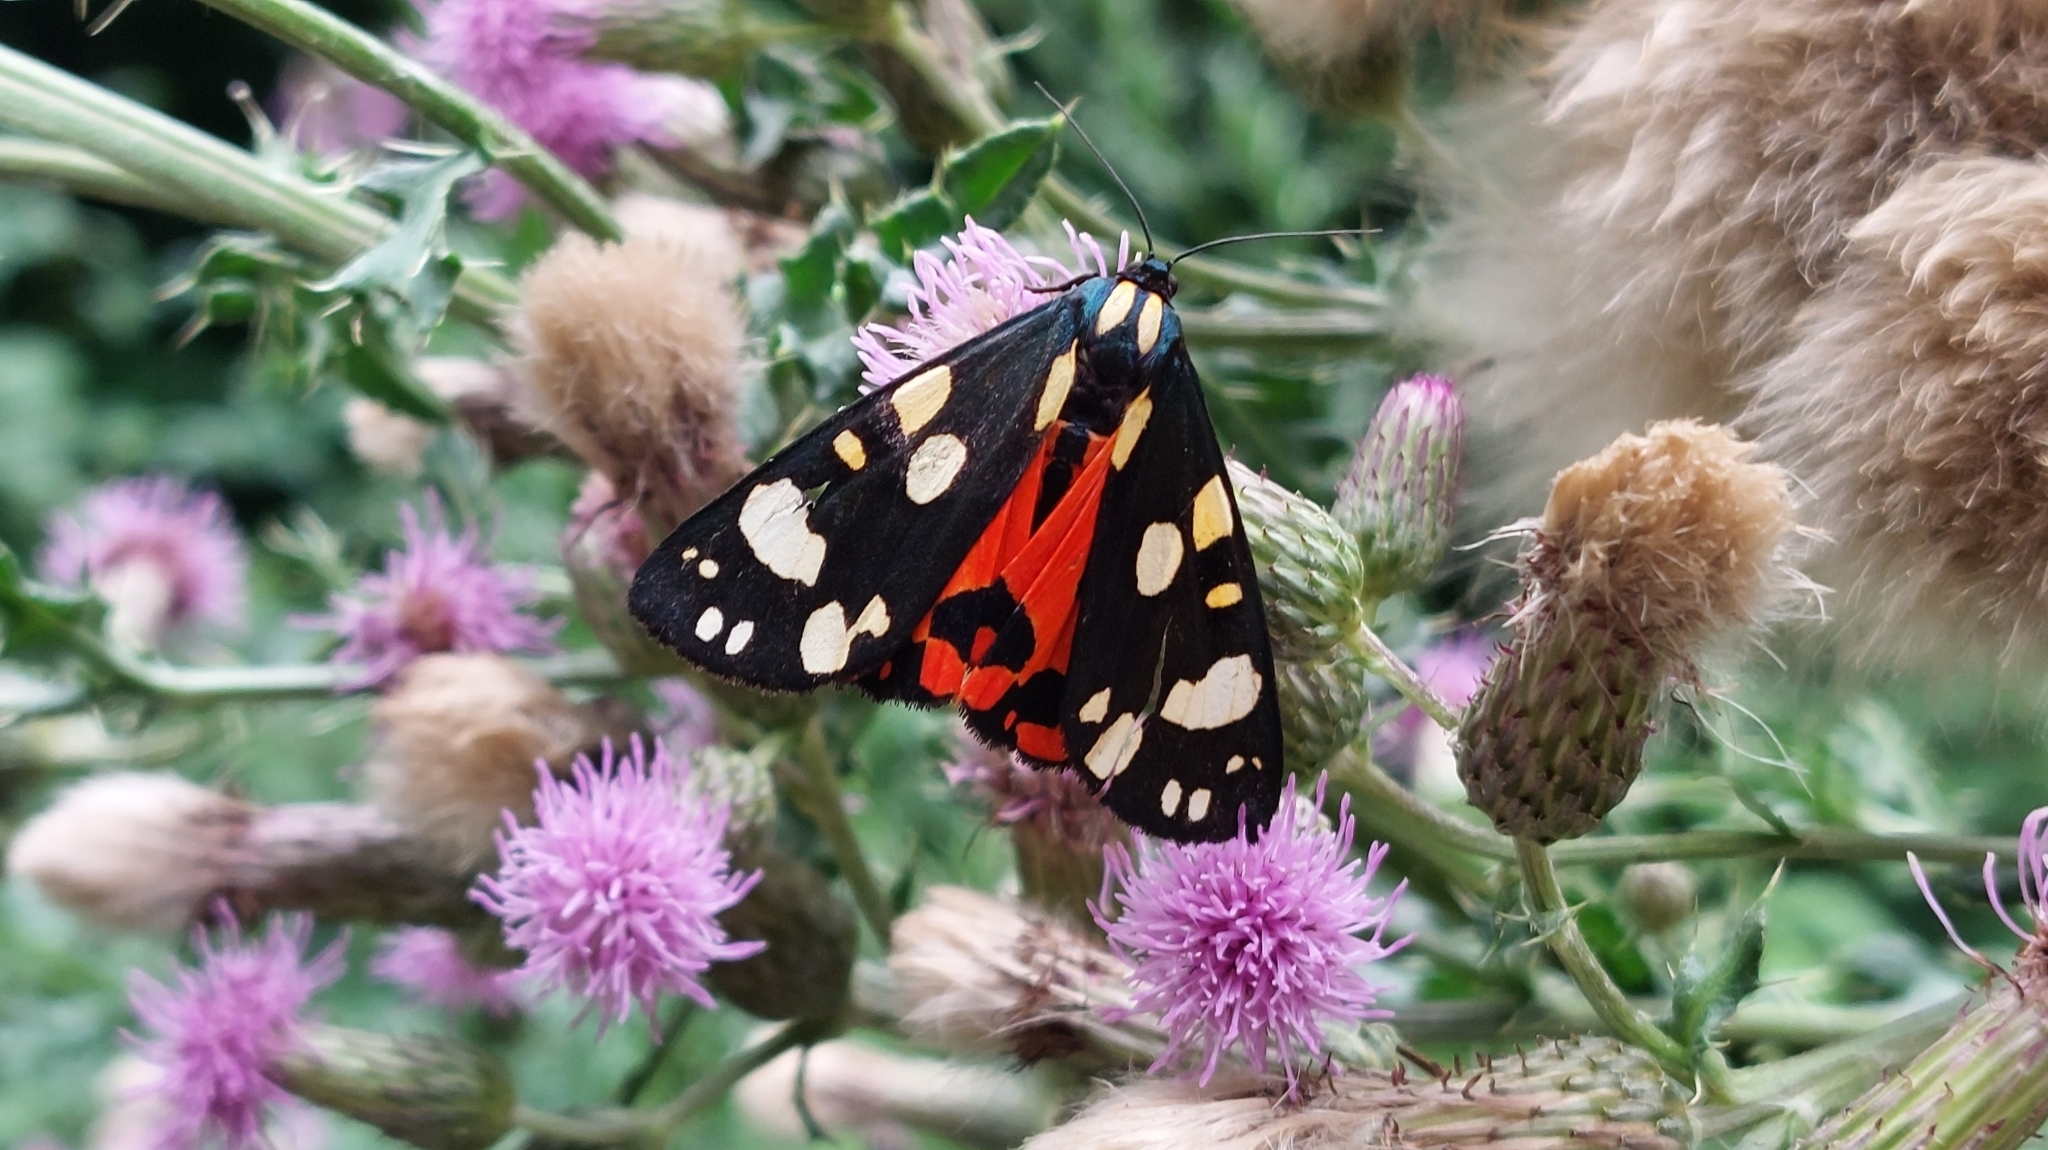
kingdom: Animalia
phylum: Arthropoda
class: Insecta
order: Lepidoptera
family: Erebidae
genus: Callimorpha
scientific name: Callimorpha dominula
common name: Scarlet tiger
